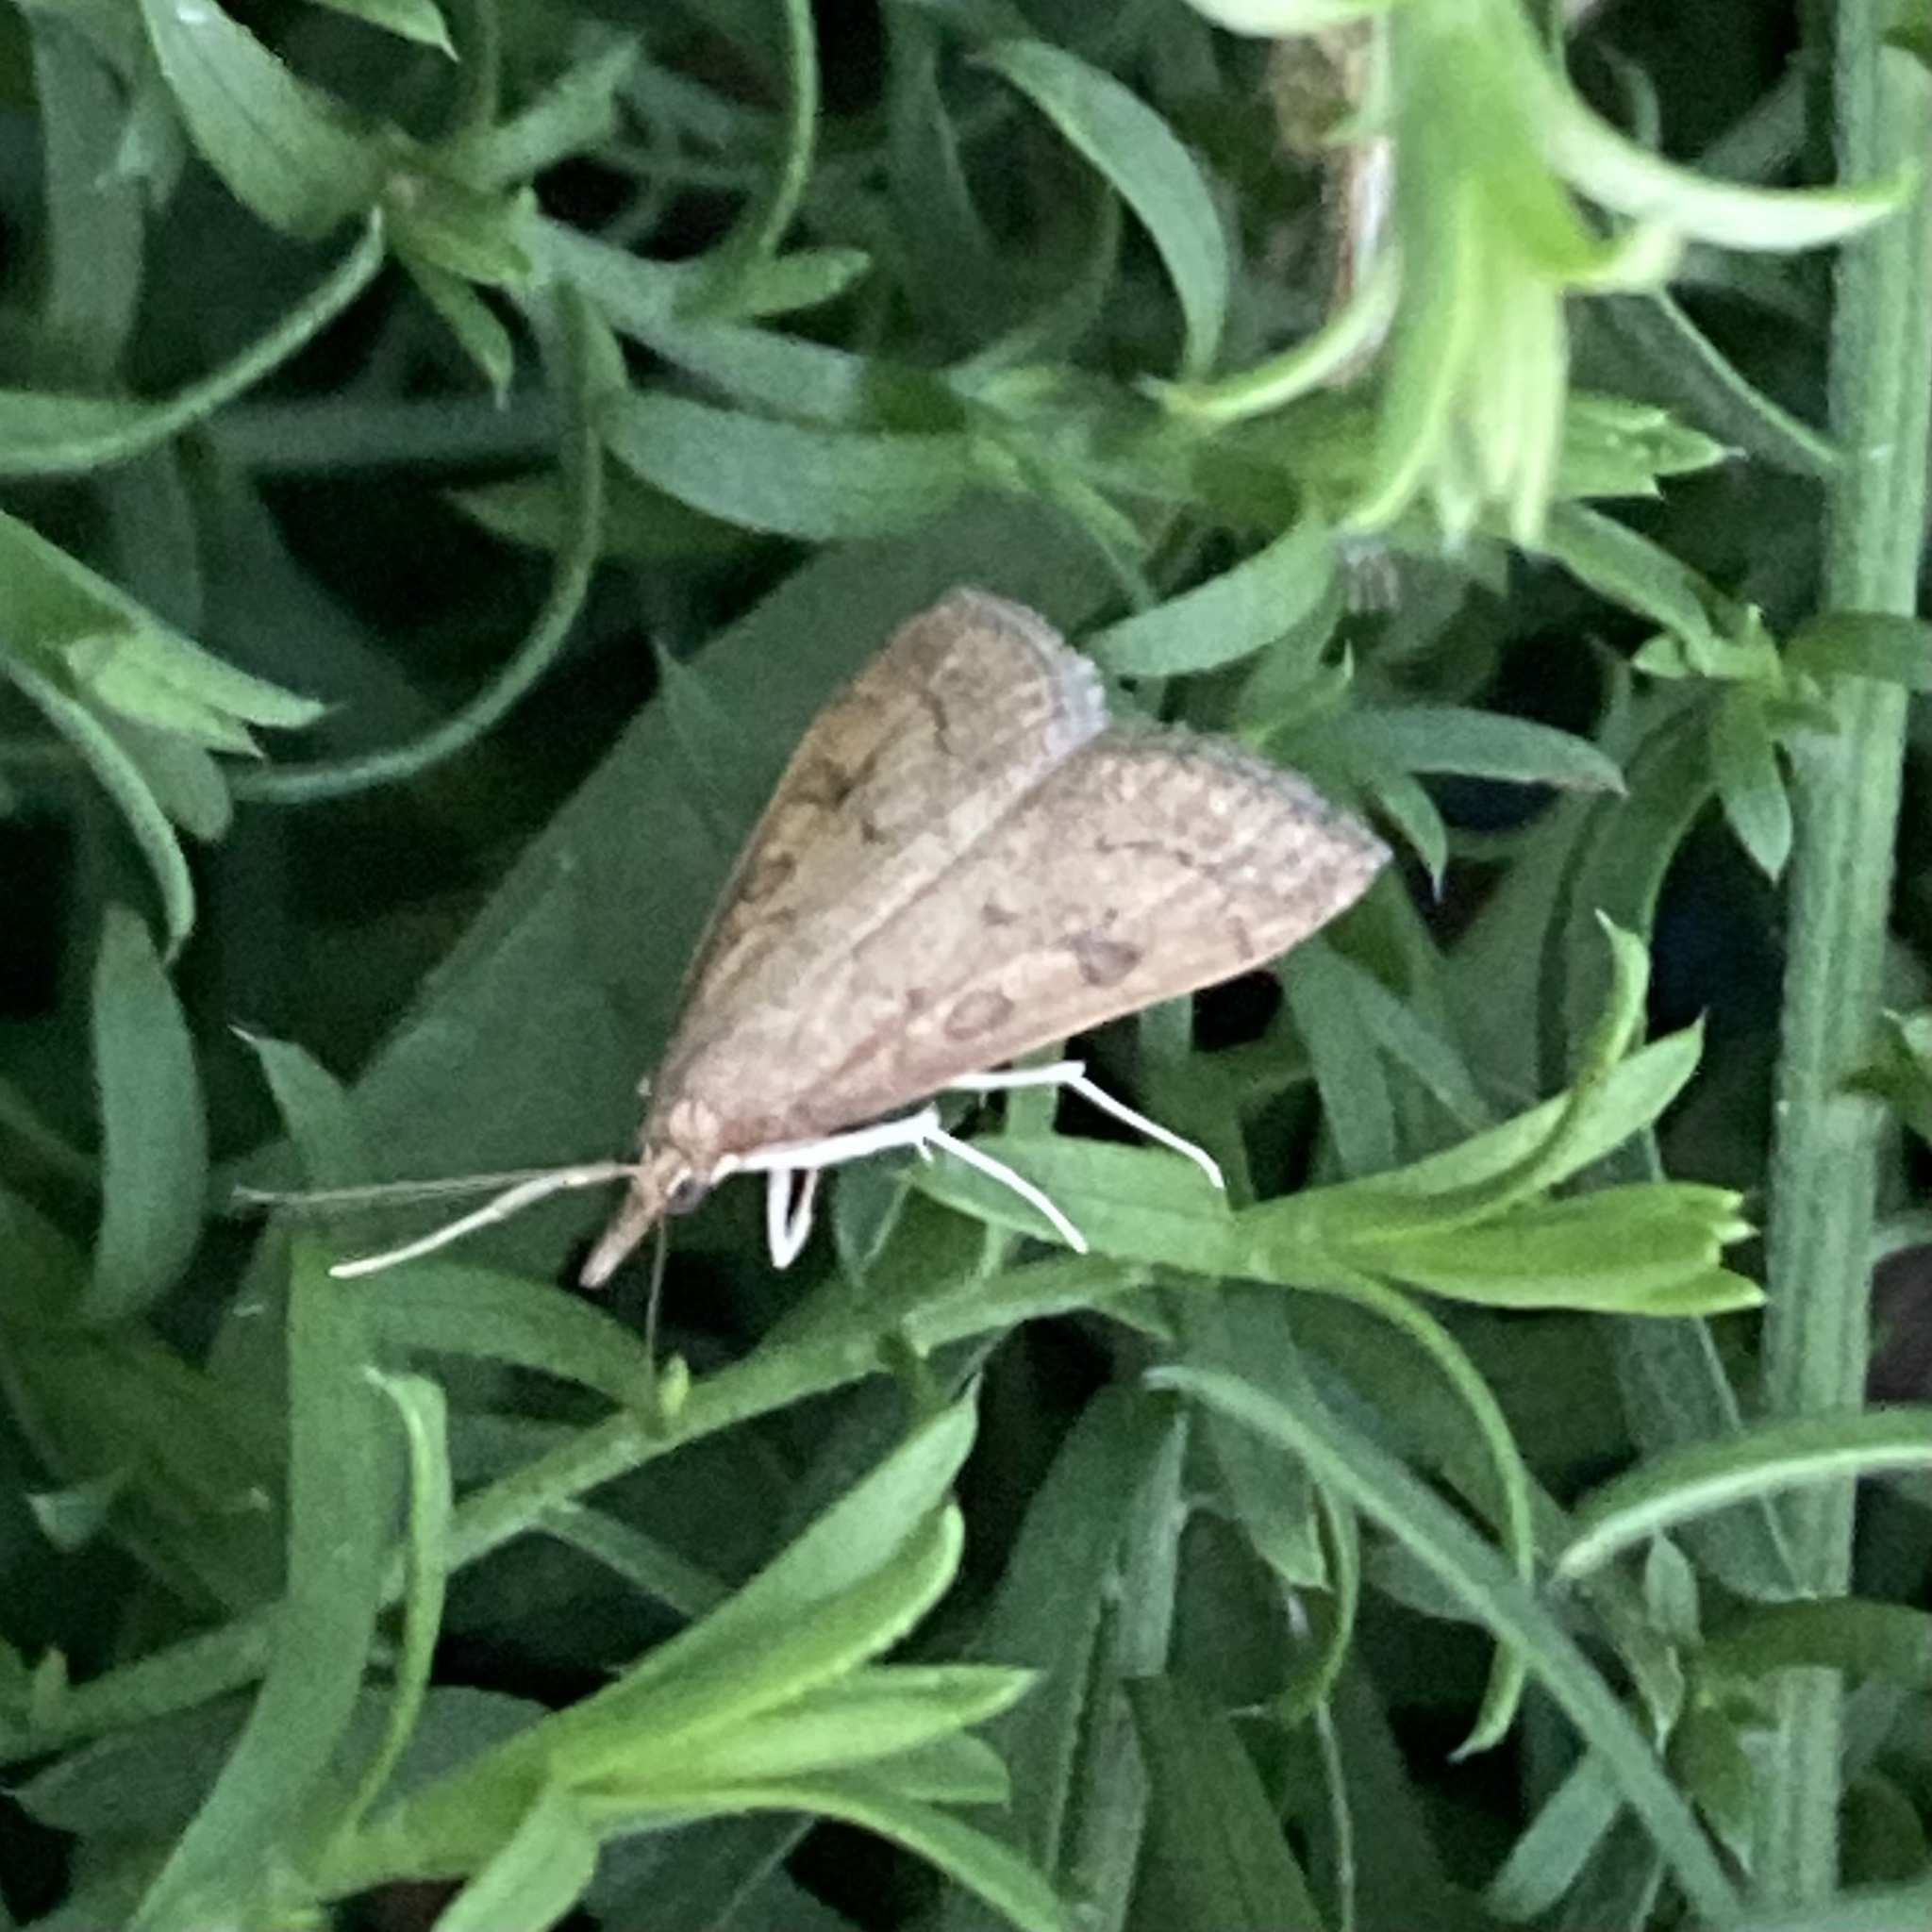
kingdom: Animalia
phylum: Arthropoda
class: Insecta
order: Lepidoptera
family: Crambidae
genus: Udea
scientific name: Udea rubigalis
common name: Celery leaftier moth
